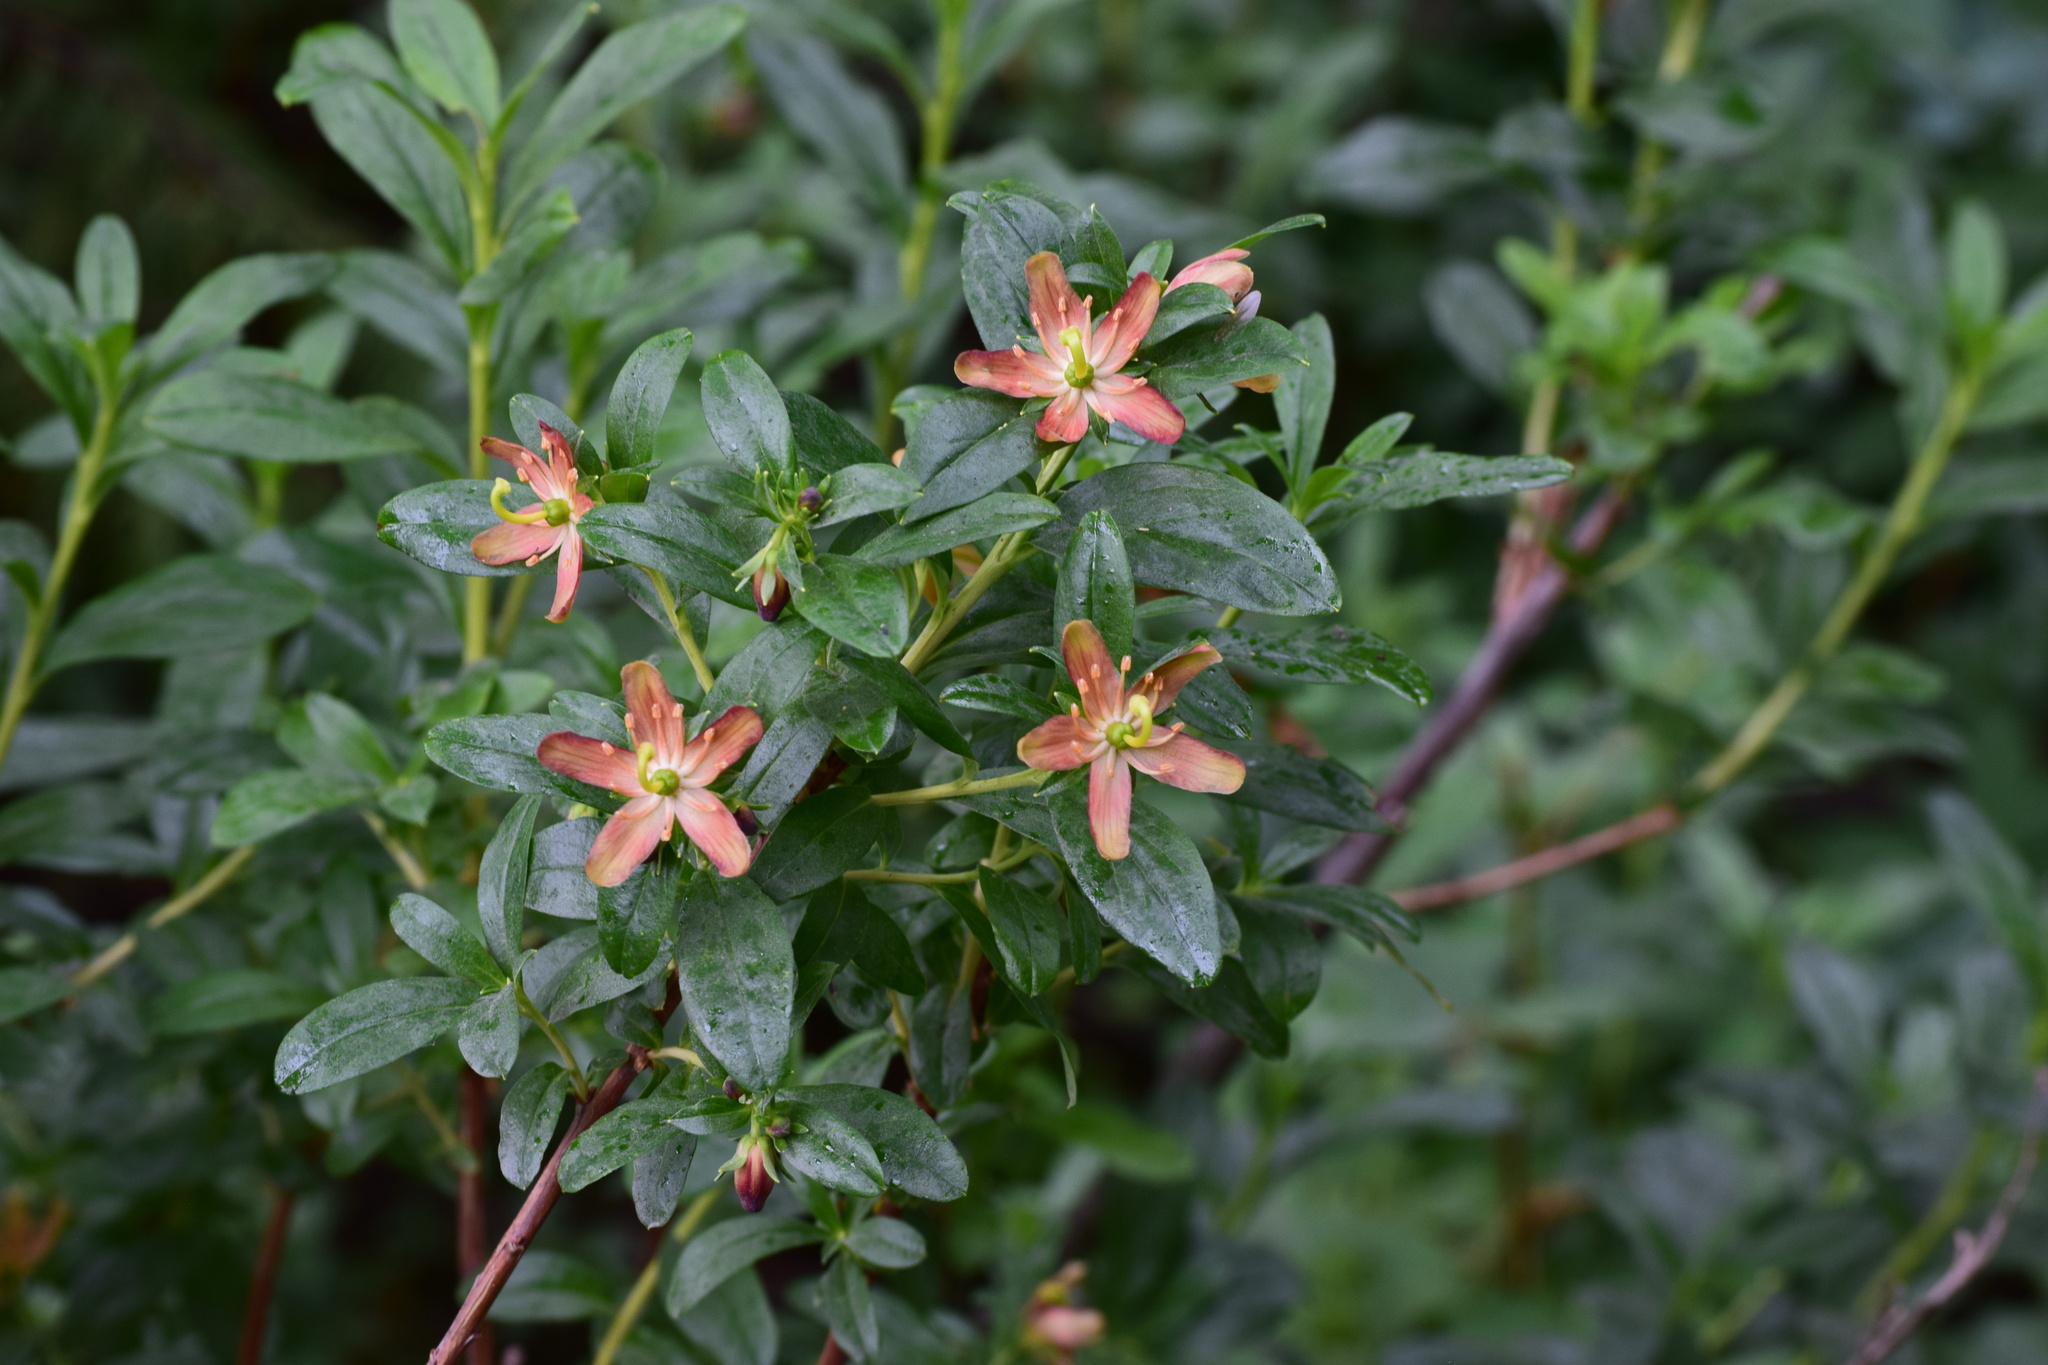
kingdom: Plantae
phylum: Tracheophyta
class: Magnoliopsida
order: Ericales
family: Ericaceae
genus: Elliottia
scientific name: Elliottia pyroliflora
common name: Copperbush
